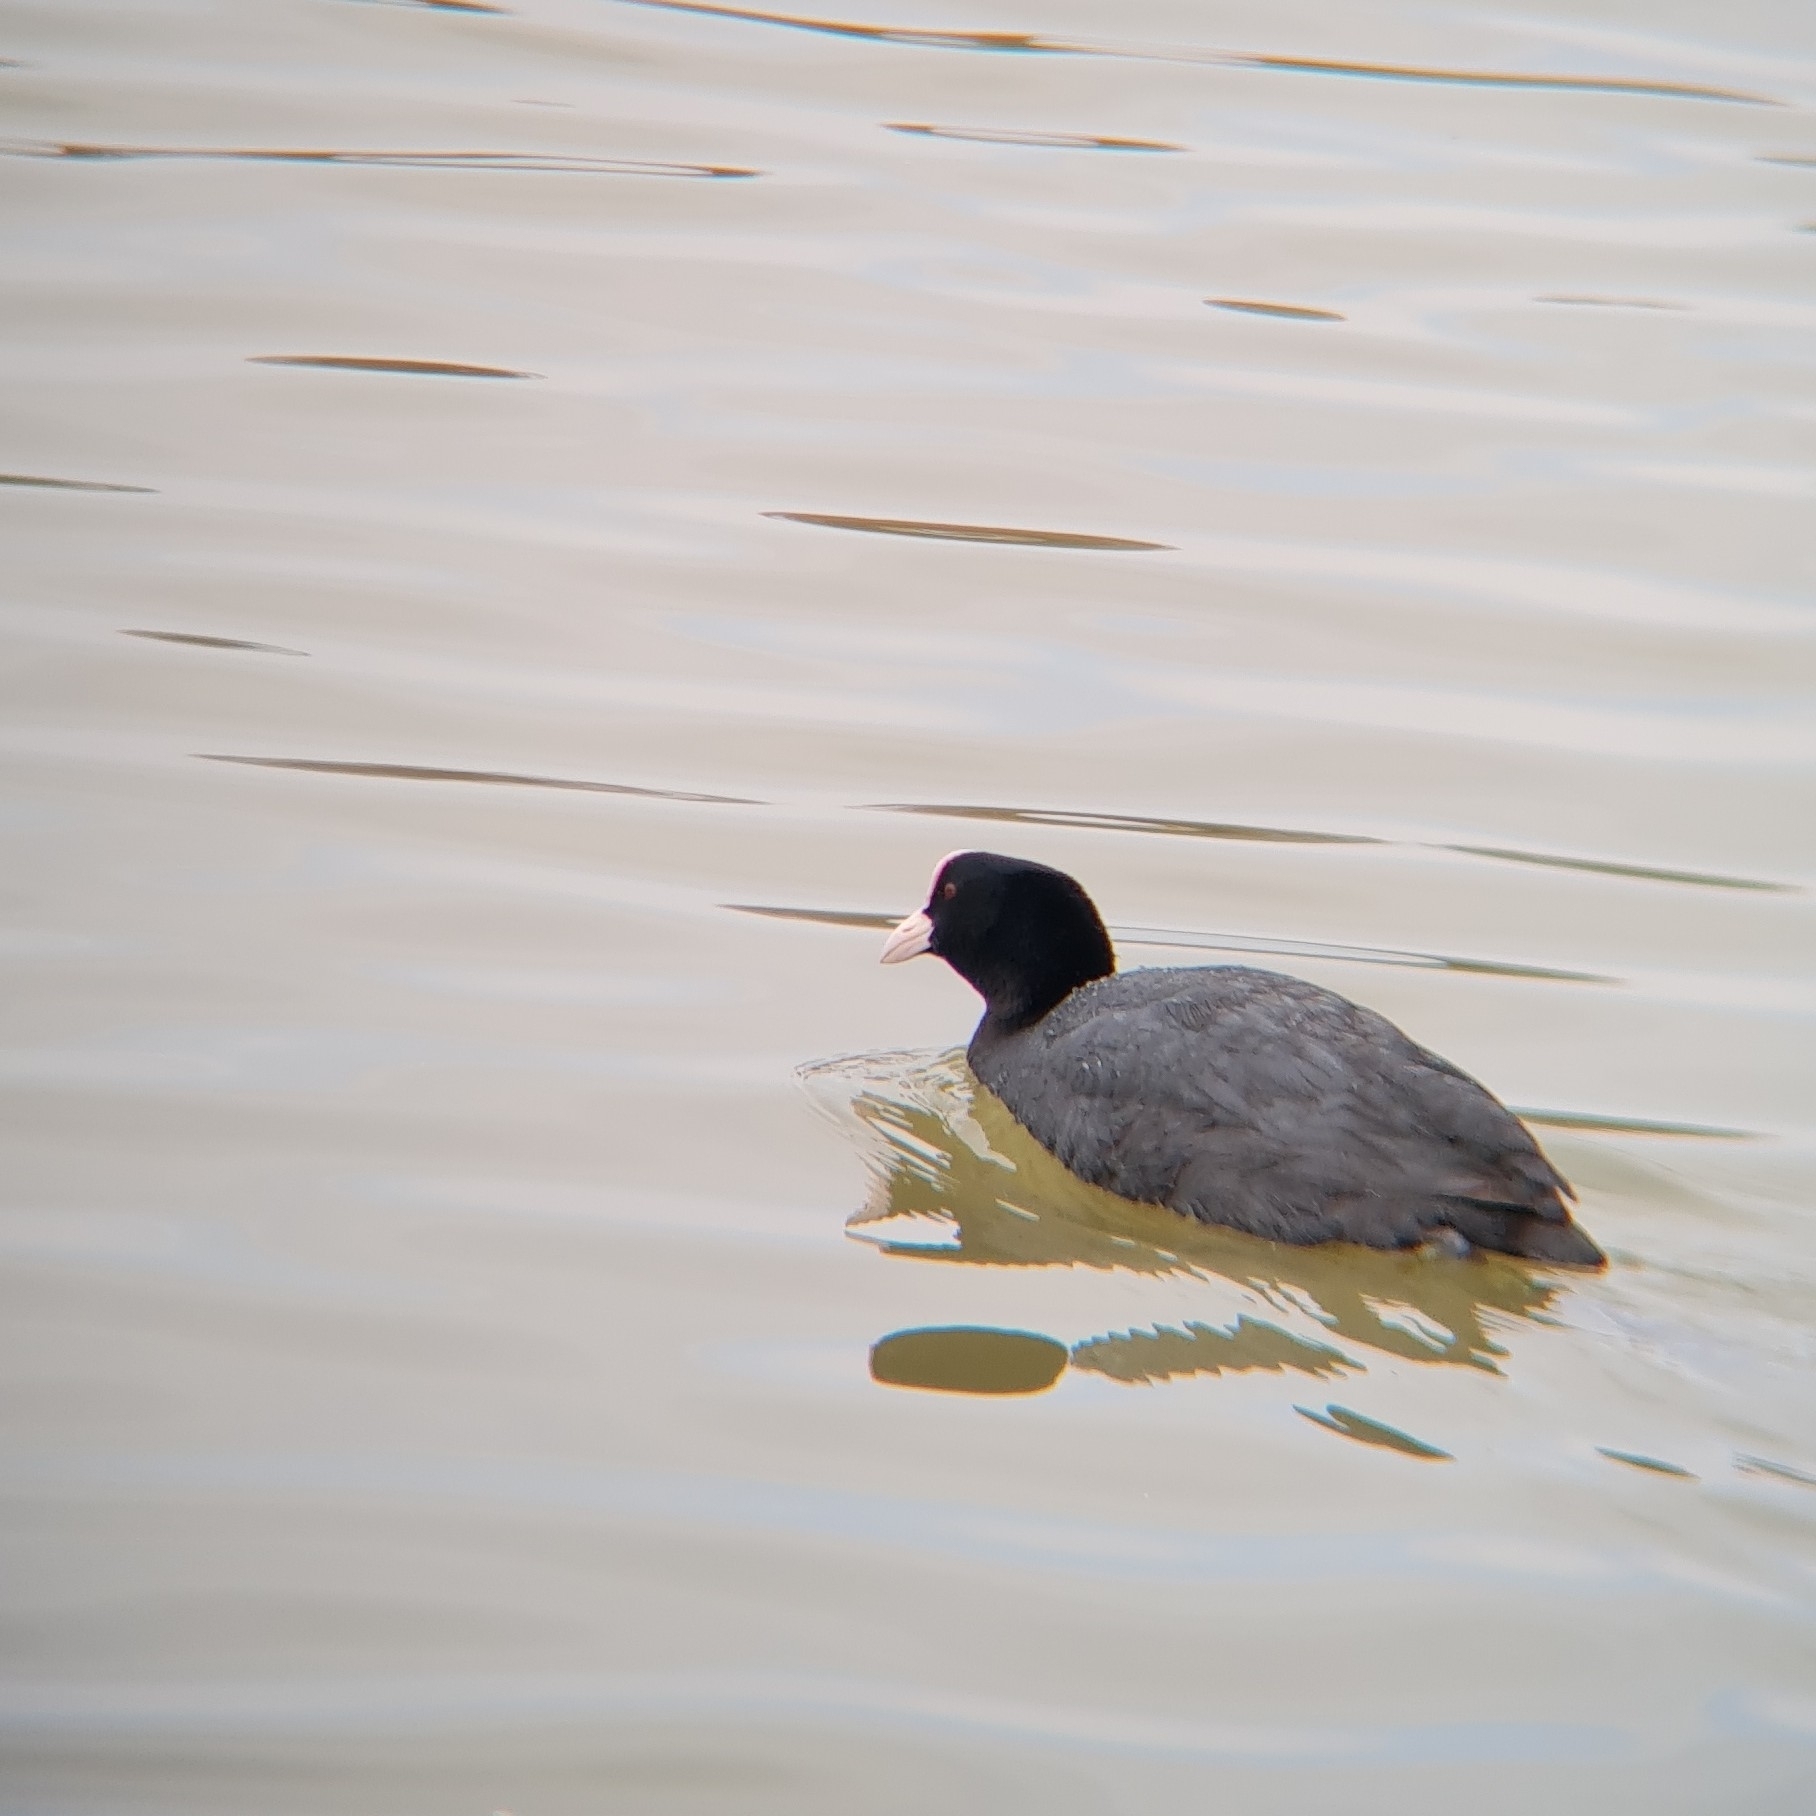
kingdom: Animalia
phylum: Chordata
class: Aves
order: Gruiformes
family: Rallidae
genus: Fulica
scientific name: Fulica atra
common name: Eurasian coot
